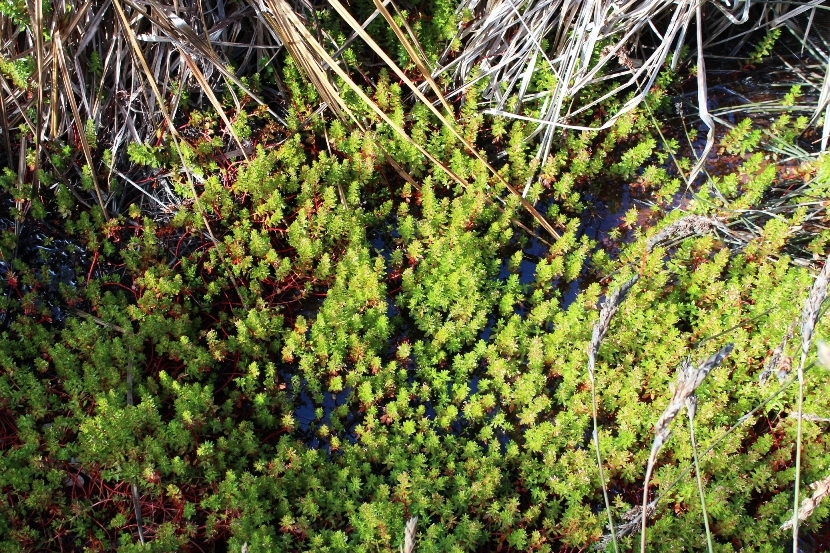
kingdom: Plantae
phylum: Tracheophyta
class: Magnoliopsida
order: Saxifragales
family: Haloragaceae
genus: Laurembergia
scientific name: Laurembergia repens
